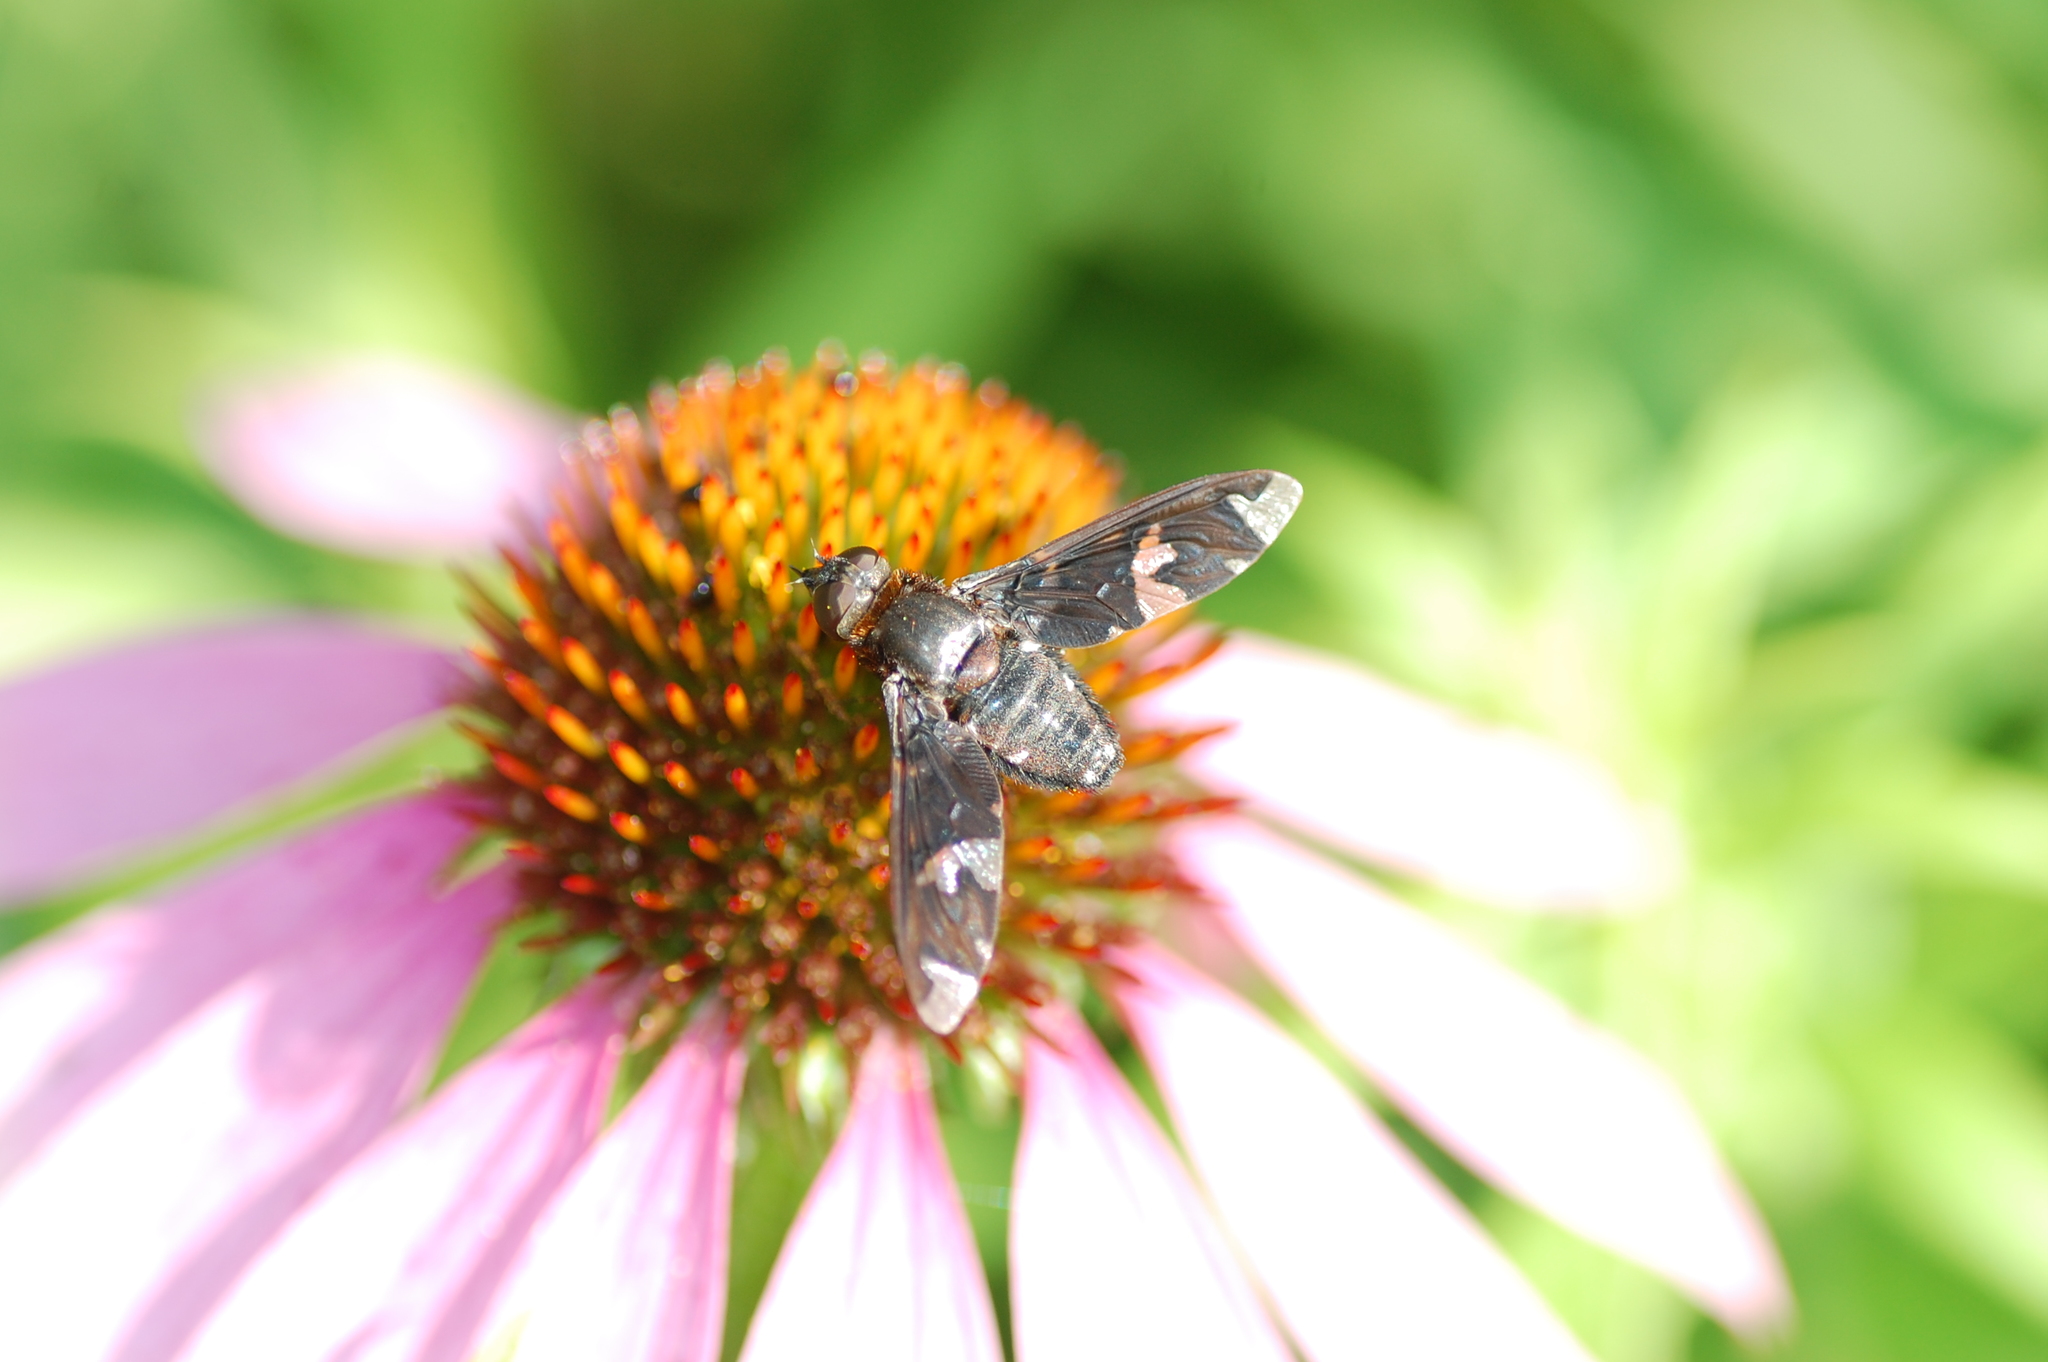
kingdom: Animalia
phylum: Arthropoda
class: Insecta
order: Diptera
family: Bombyliidae
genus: Exoprosopa
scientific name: Exoprosopa decora
